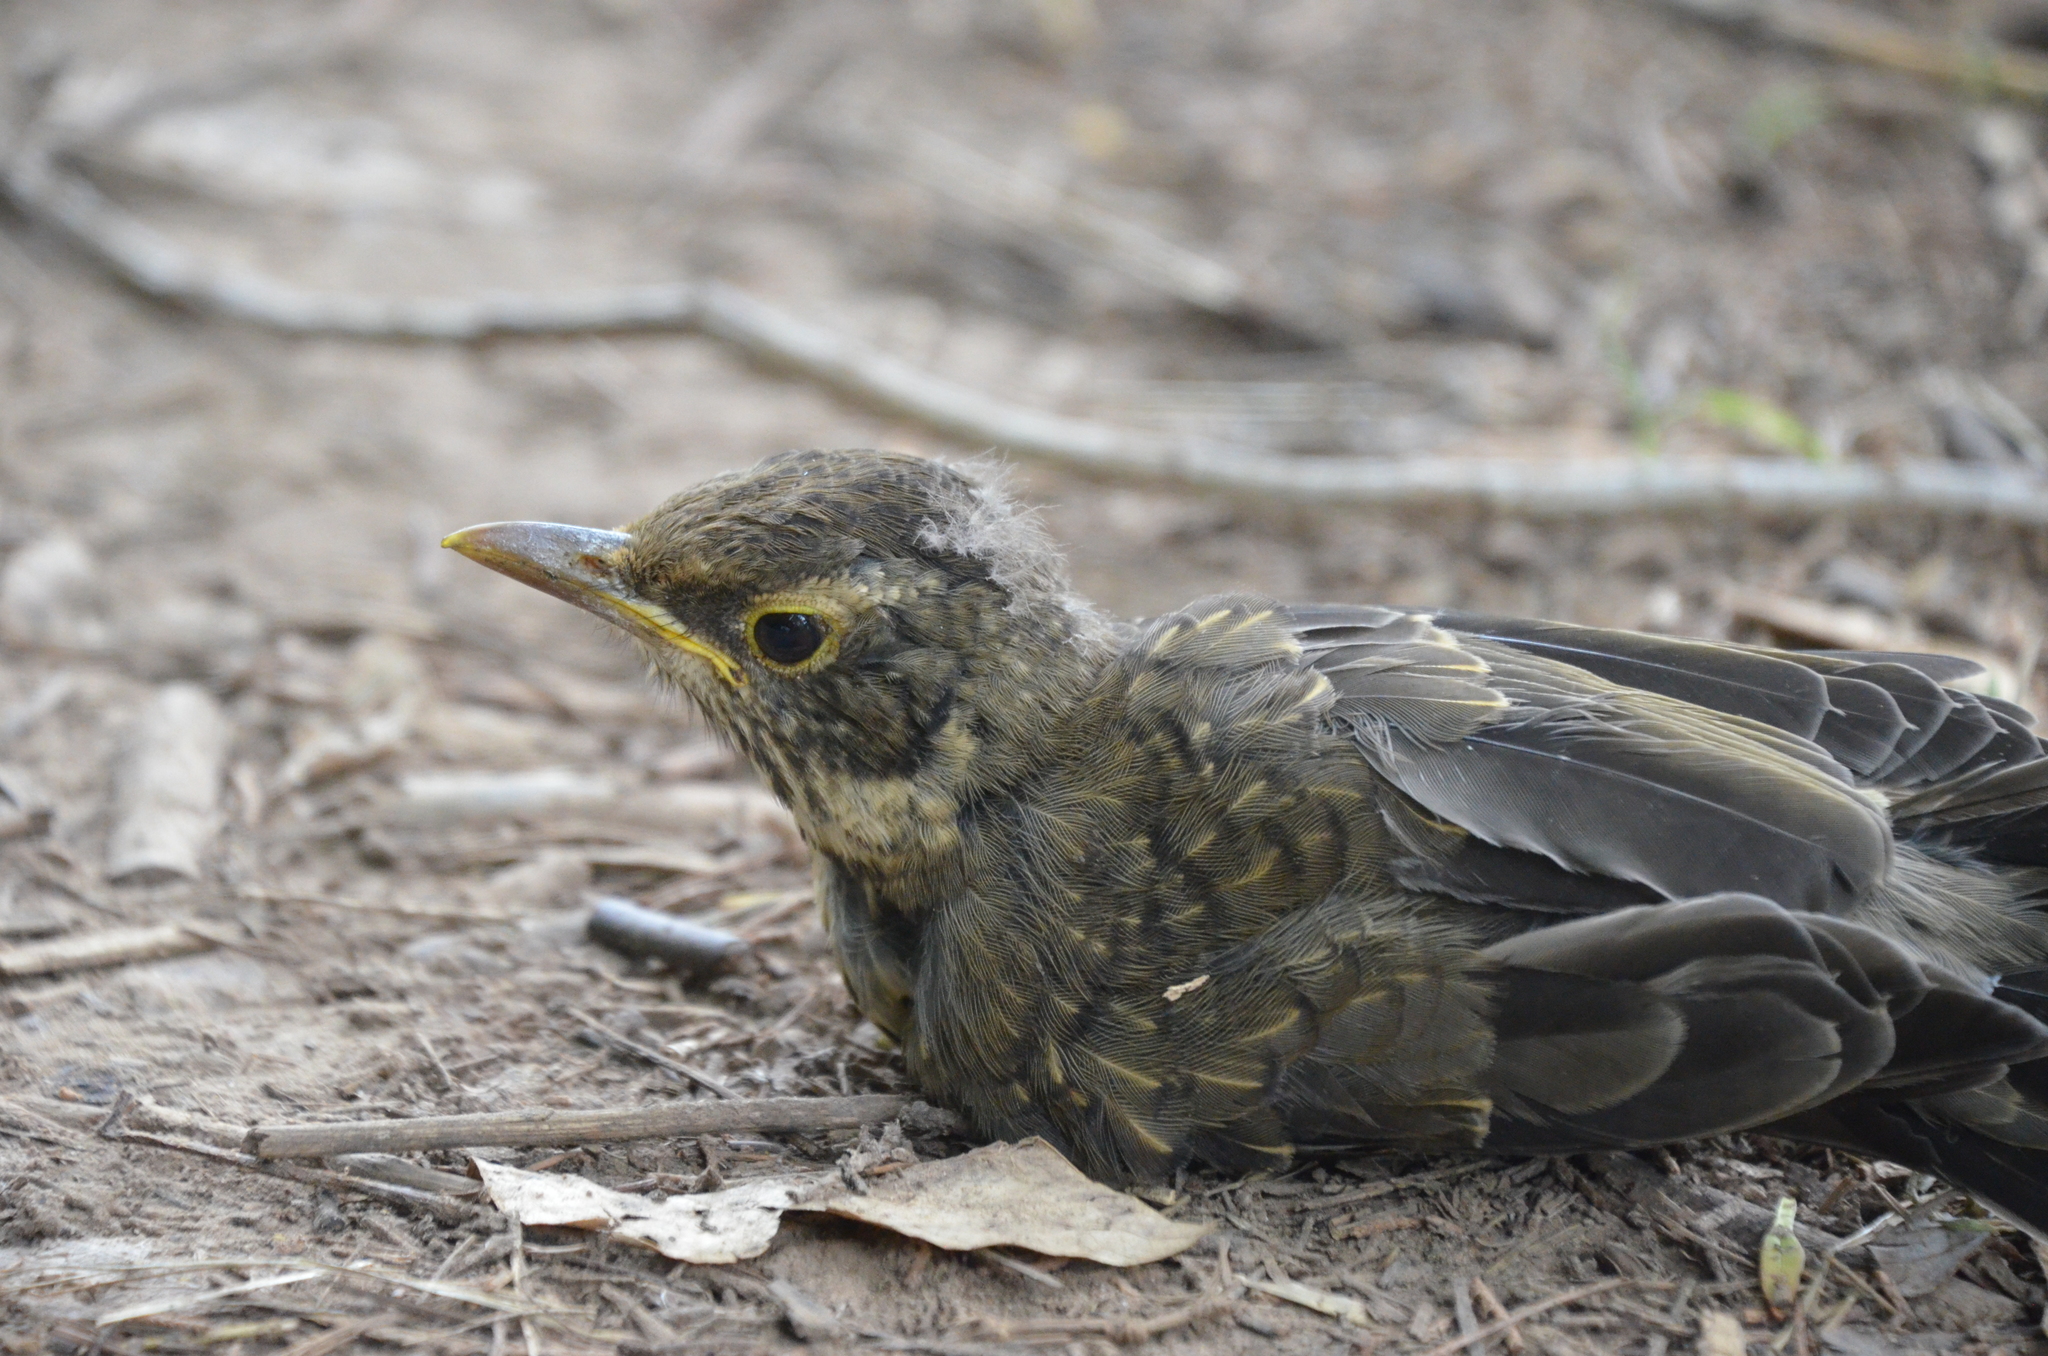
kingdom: Animalia
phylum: Chordata
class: Aves
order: Passeriformes
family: Turdidae
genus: Turdus
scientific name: Turdus falcklandii
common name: Austral thrush
